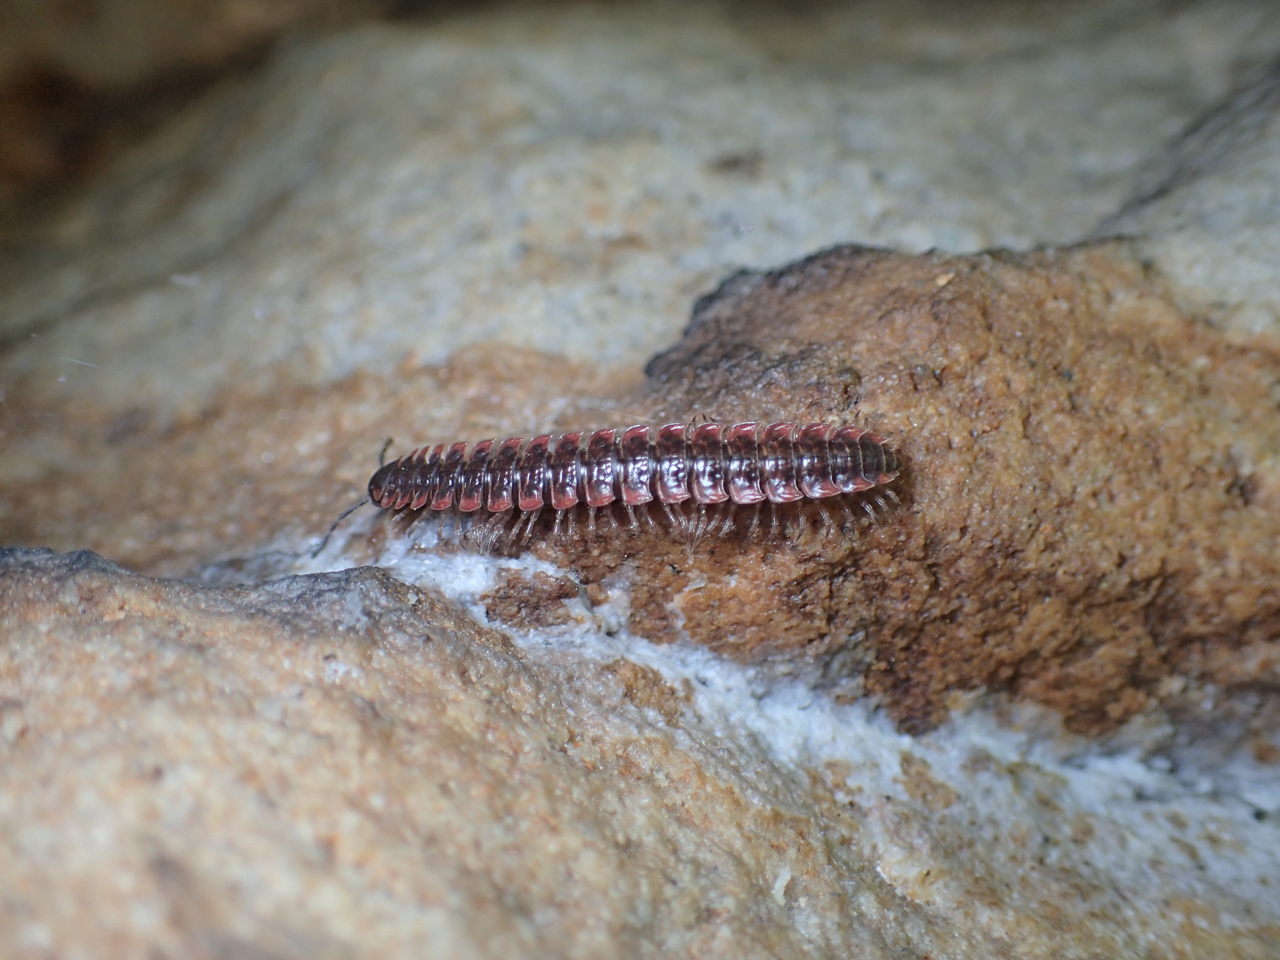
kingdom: Animalia
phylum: Arthropoda
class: Diplopoda
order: Polydesmida
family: Polydesmidae
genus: Pseudopolydesmus
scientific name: Pseudopolydesmus erasus
